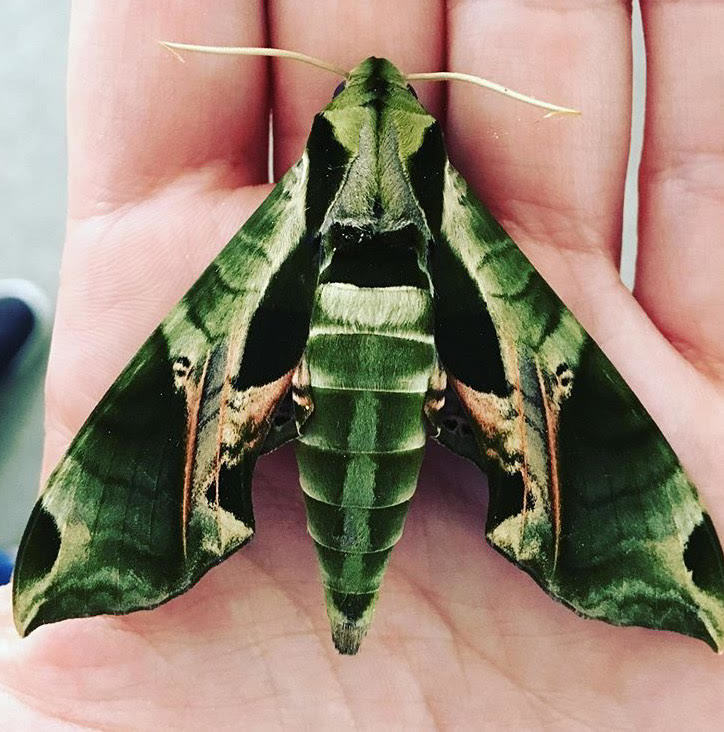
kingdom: Animalia
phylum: Arthropoda
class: Insecta
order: Lepidoptera
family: Sphingidae
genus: Eumorpha
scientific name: Eumorpha pandorus
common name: Pandora sphinx
